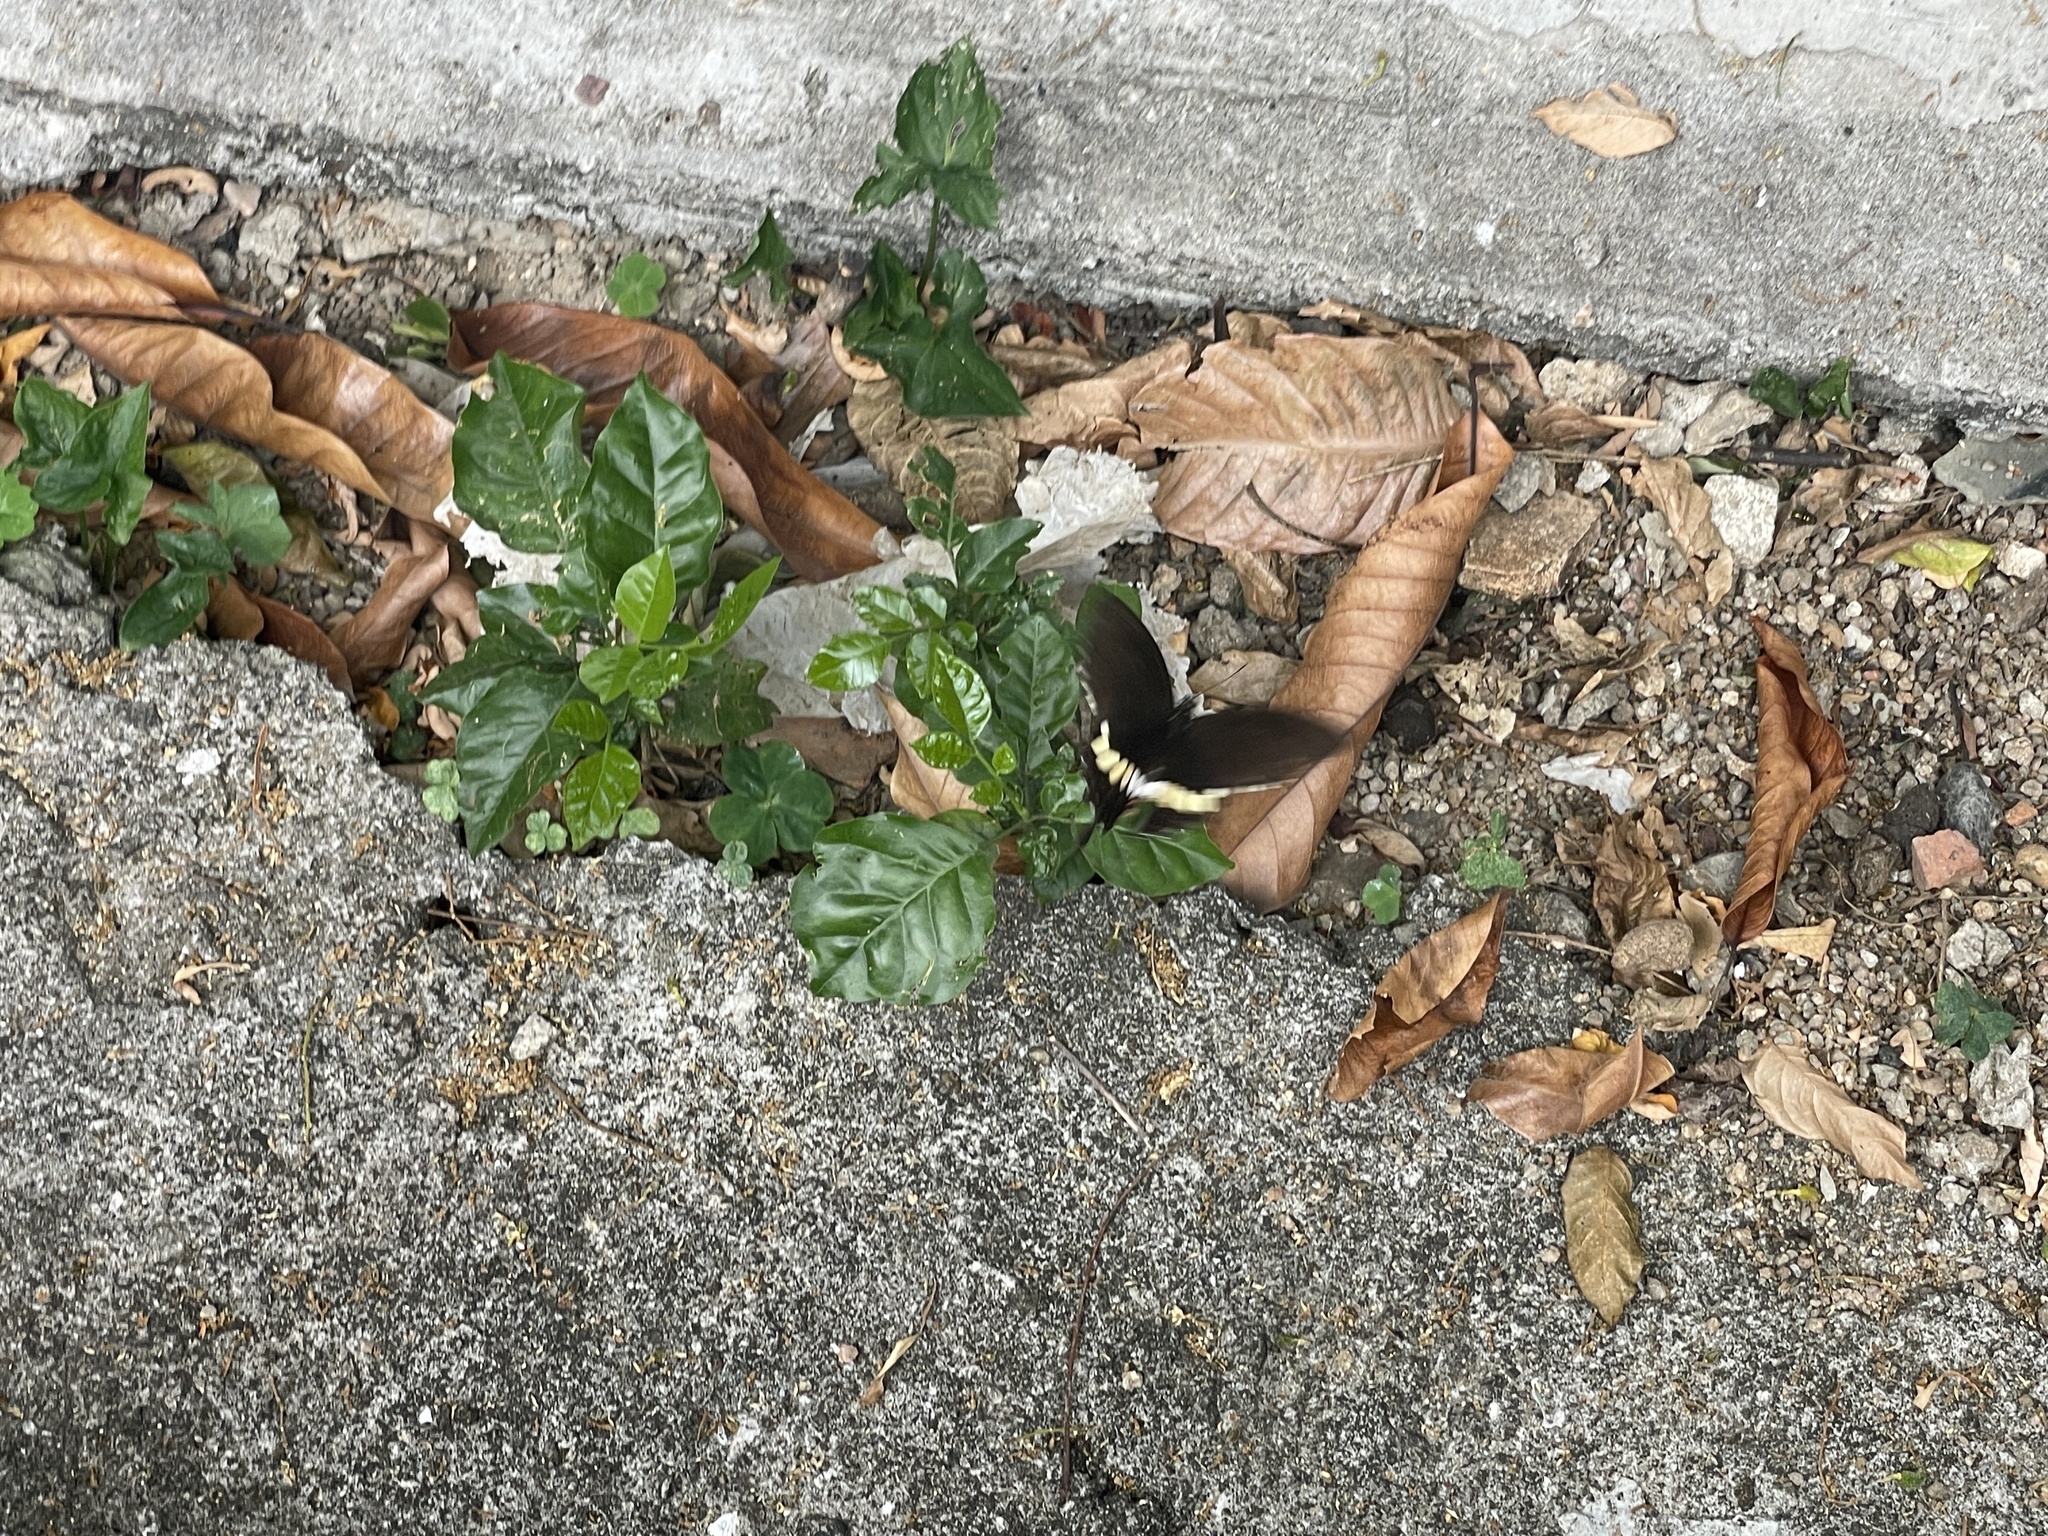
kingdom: Animalia
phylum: Arthropoda
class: Insecta
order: Lepidoptera
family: Papilionidae
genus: Papilio
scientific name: Papilio polytes
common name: Common mormon
